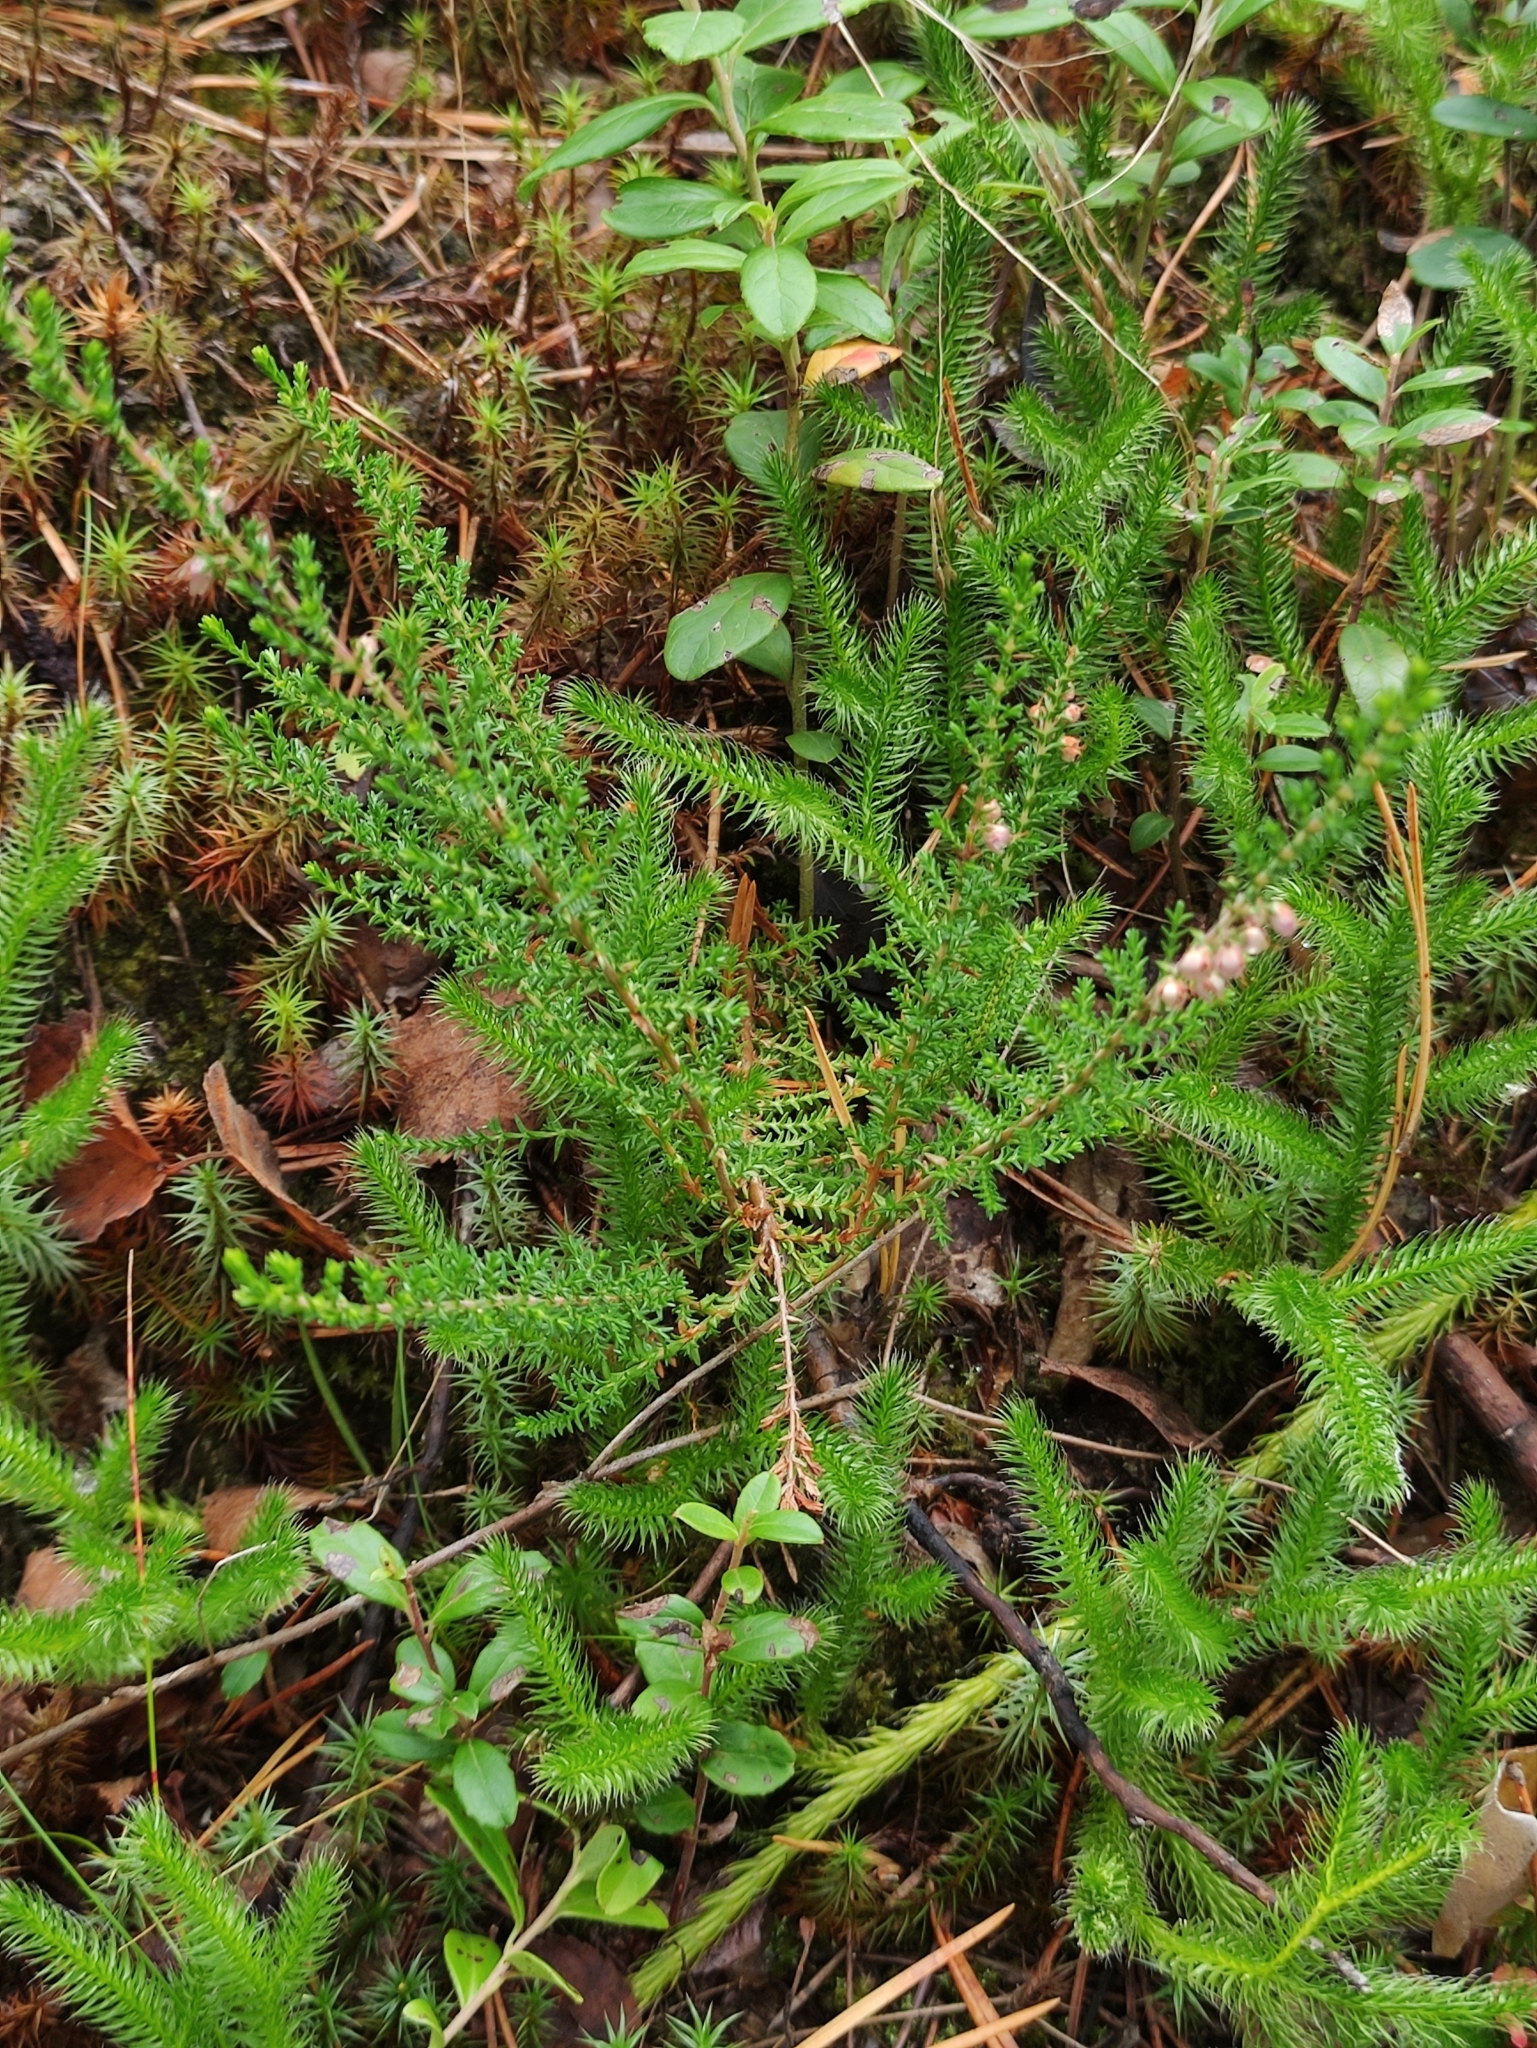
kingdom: Plantae
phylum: Tracheophyta
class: Magnoliopsida
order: Ericales
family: Ericaceae
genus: Calluna
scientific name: Calluna vulgaris
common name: Heather
